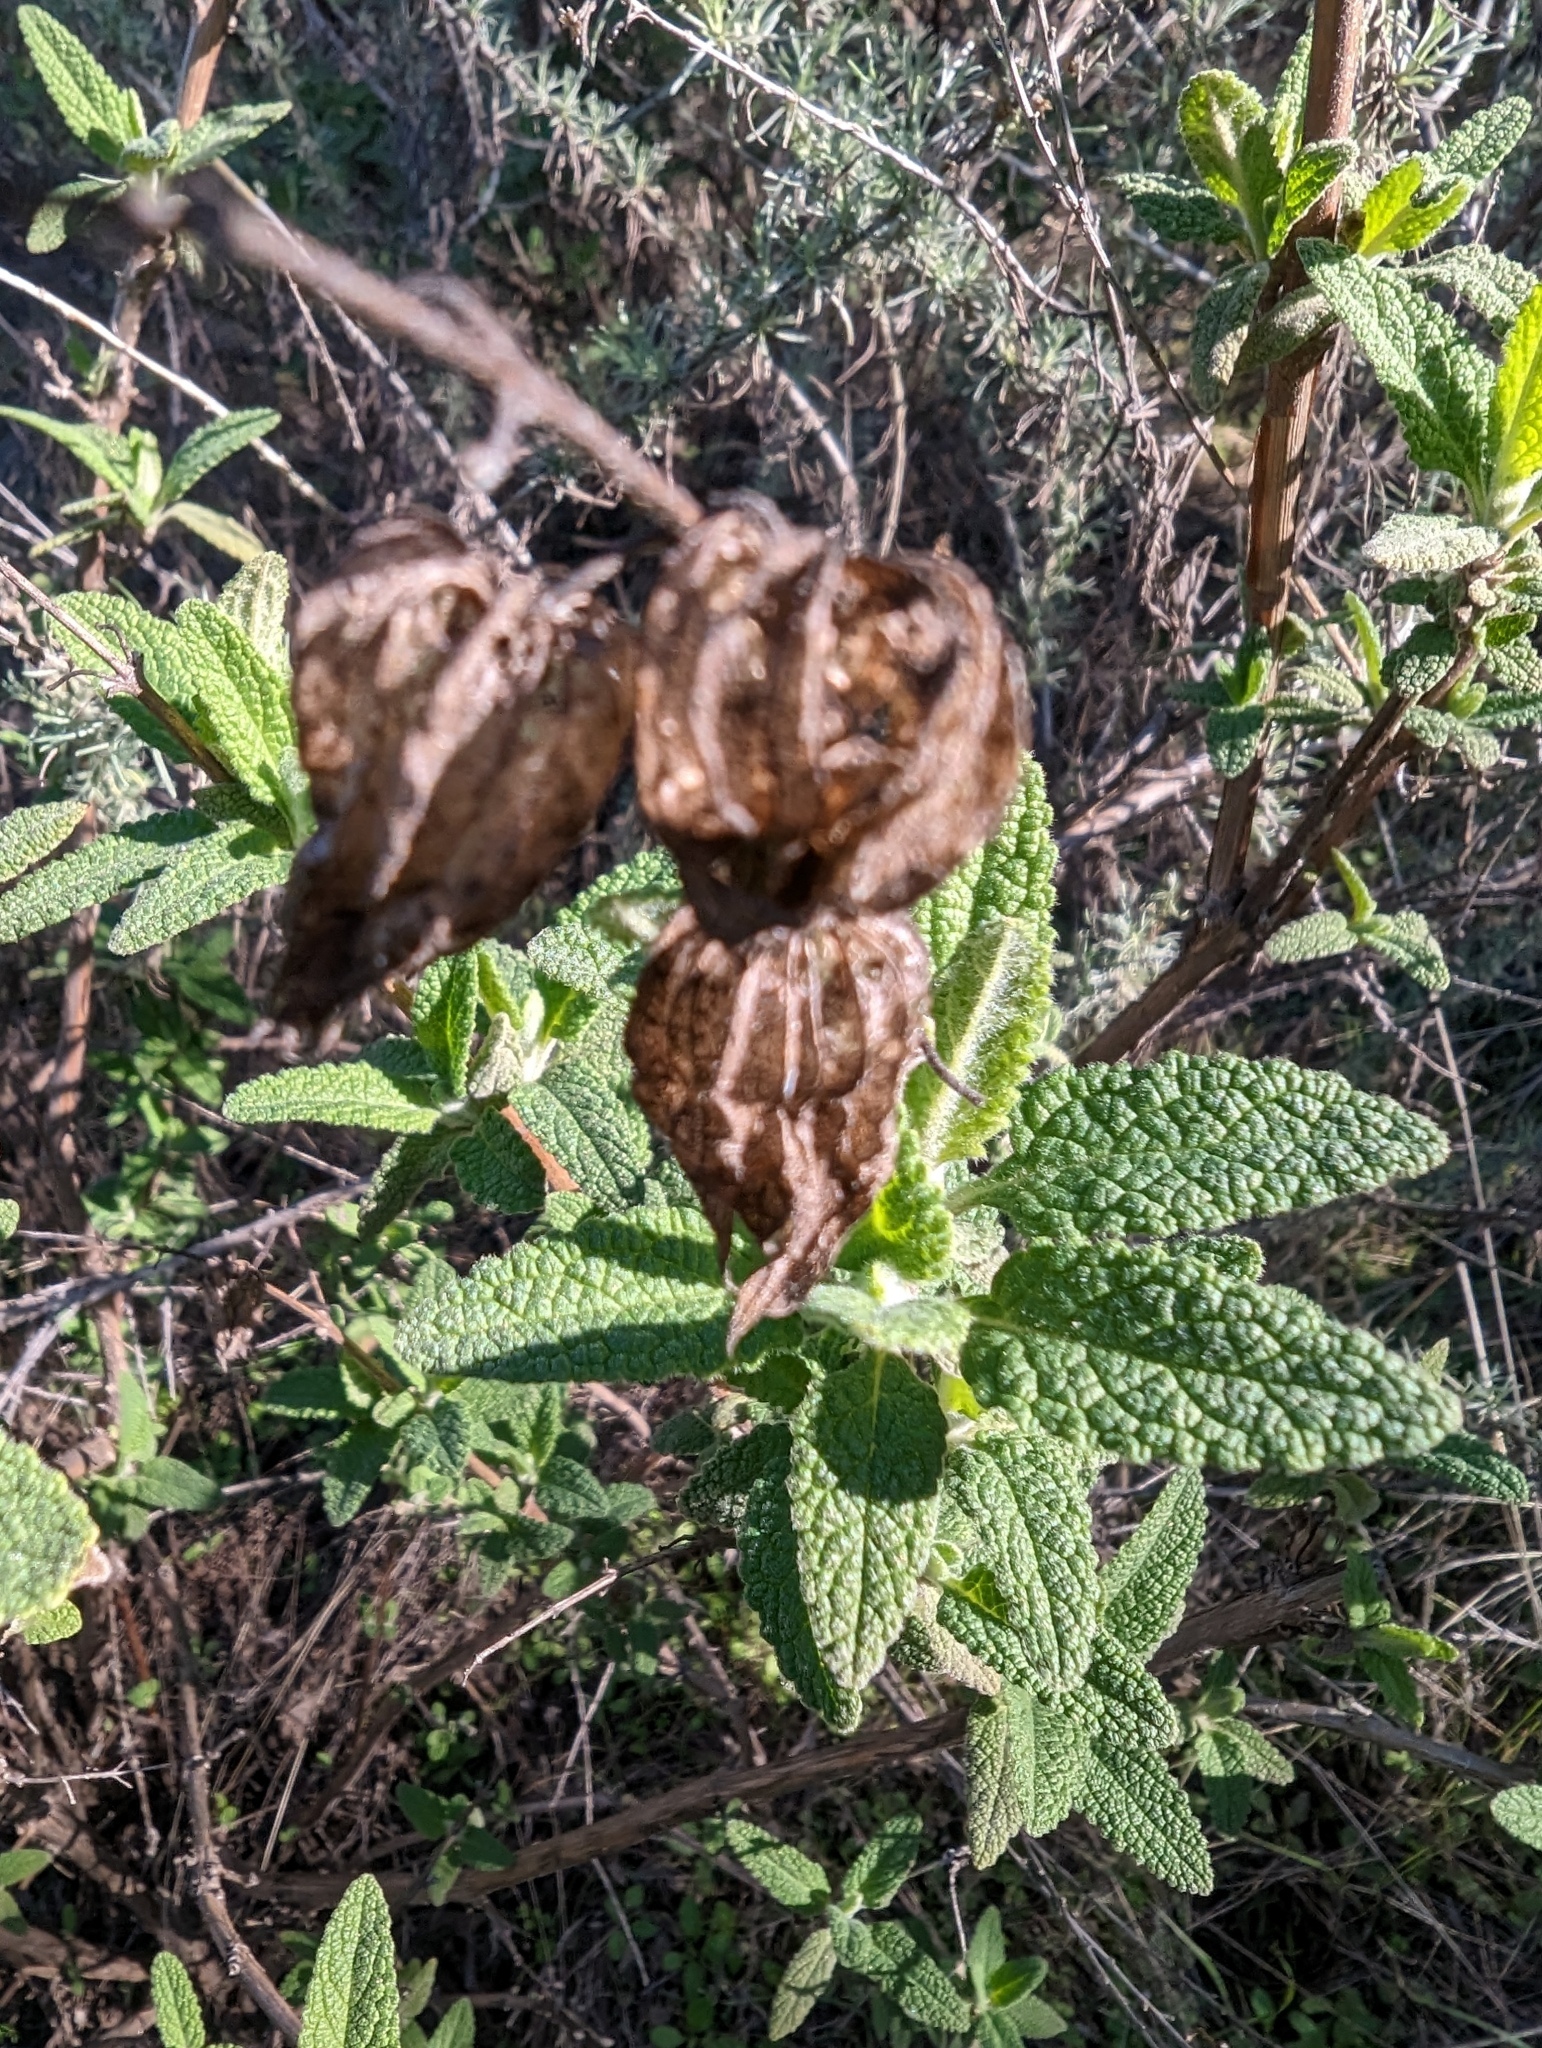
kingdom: Plantae
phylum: Tracheophyta
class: Magnoliopsida
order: Lamiales
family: Lamiaceae
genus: Lepechinia
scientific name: Lepechinia calycina
